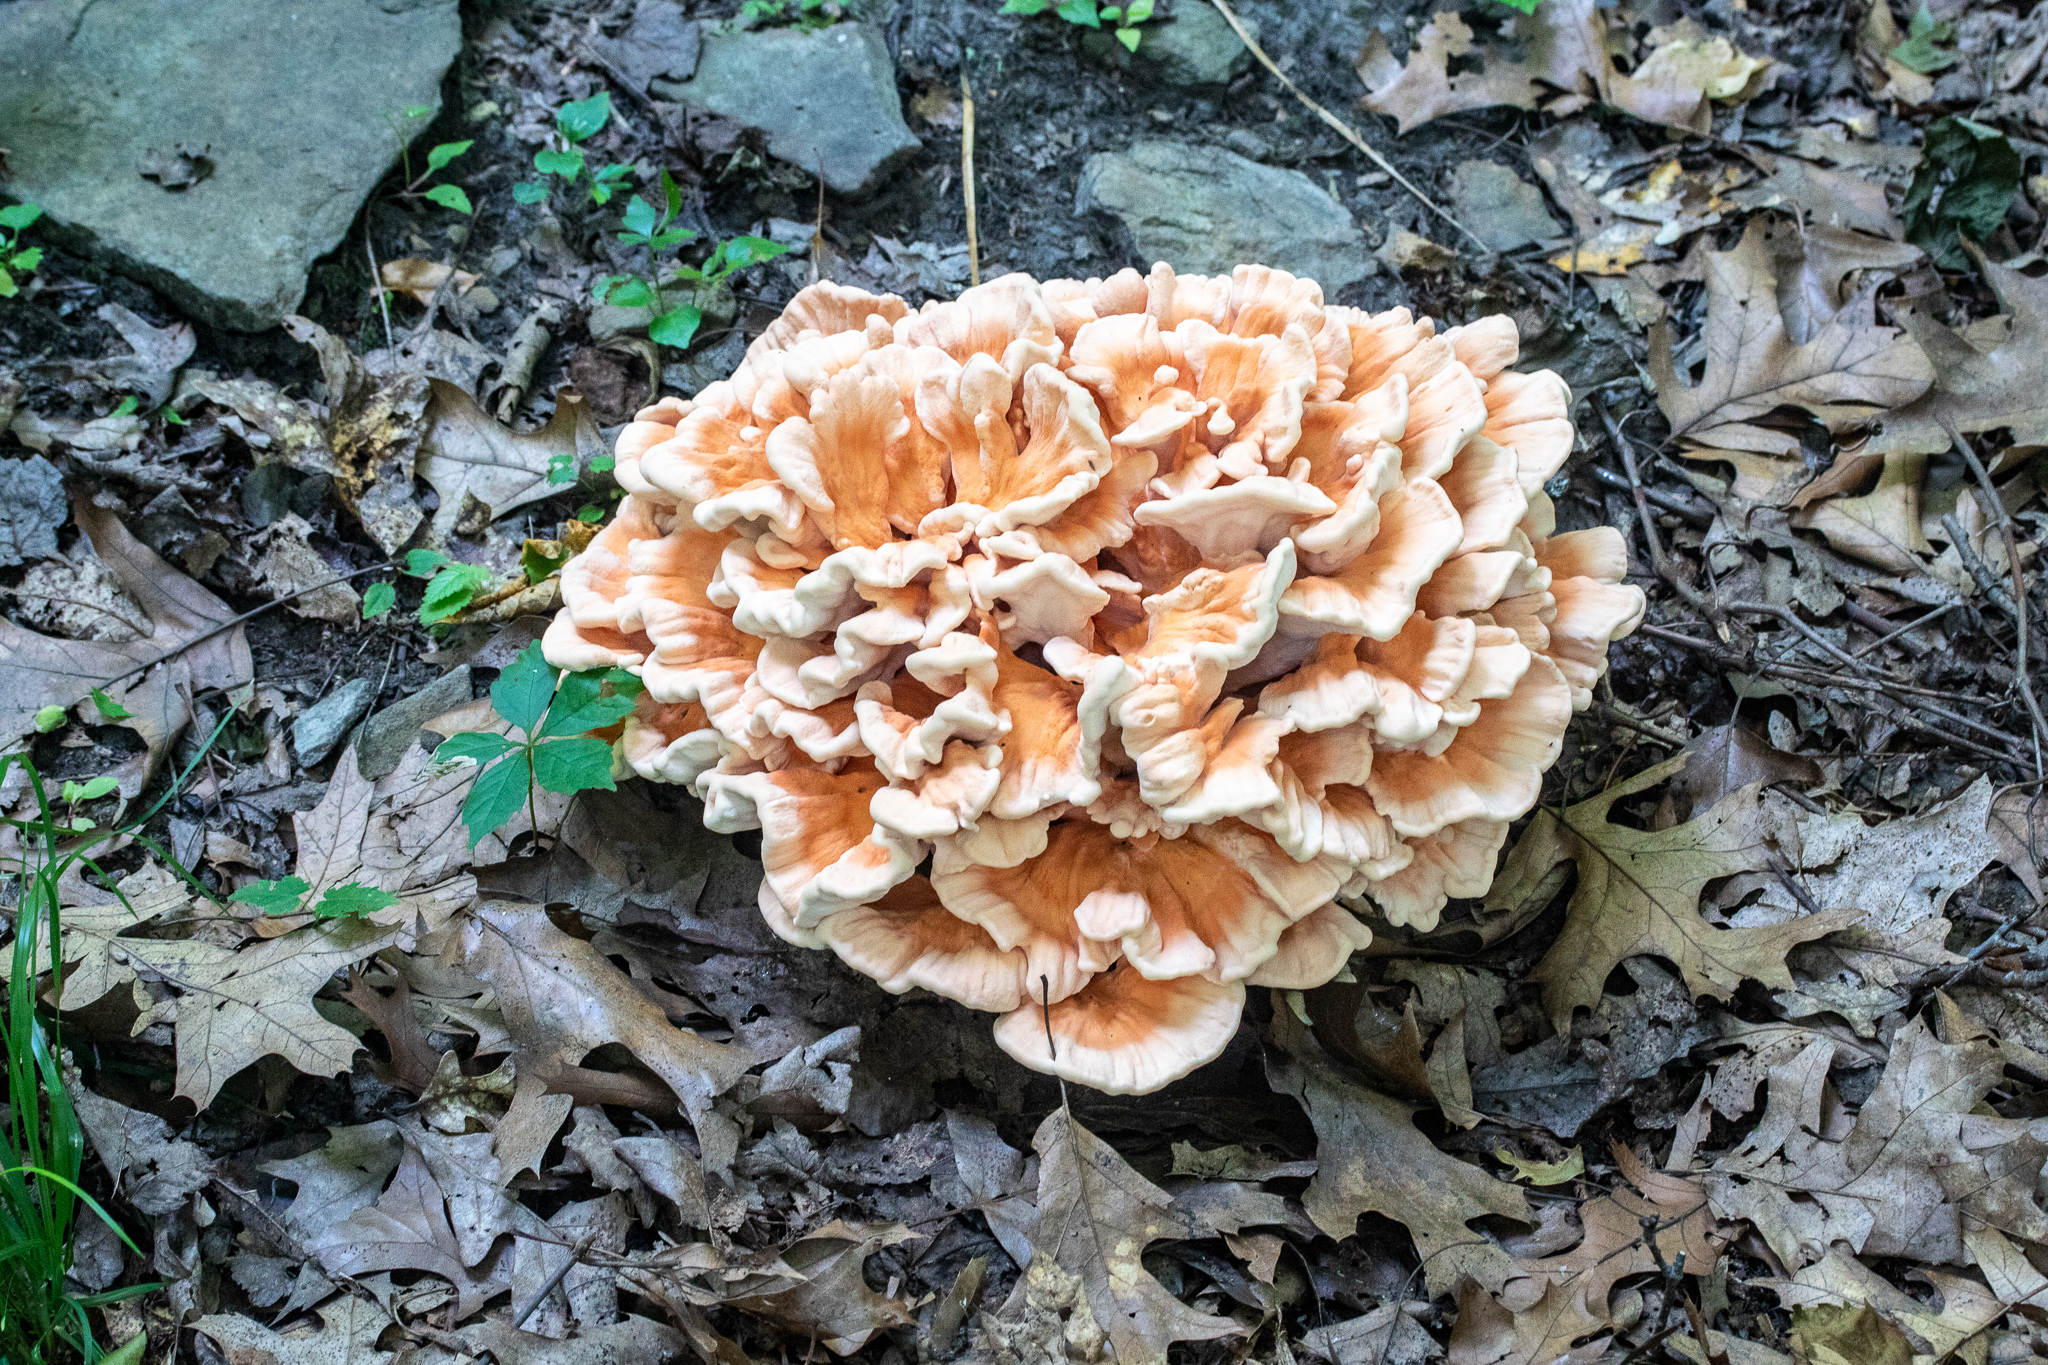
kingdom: Fungi
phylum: Basidiomycota
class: Agaricomycetes
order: Polyporales
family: Laetiporaceae
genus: Laetiporus
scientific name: Laetiporus sulphureus
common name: Chicken of the woods
